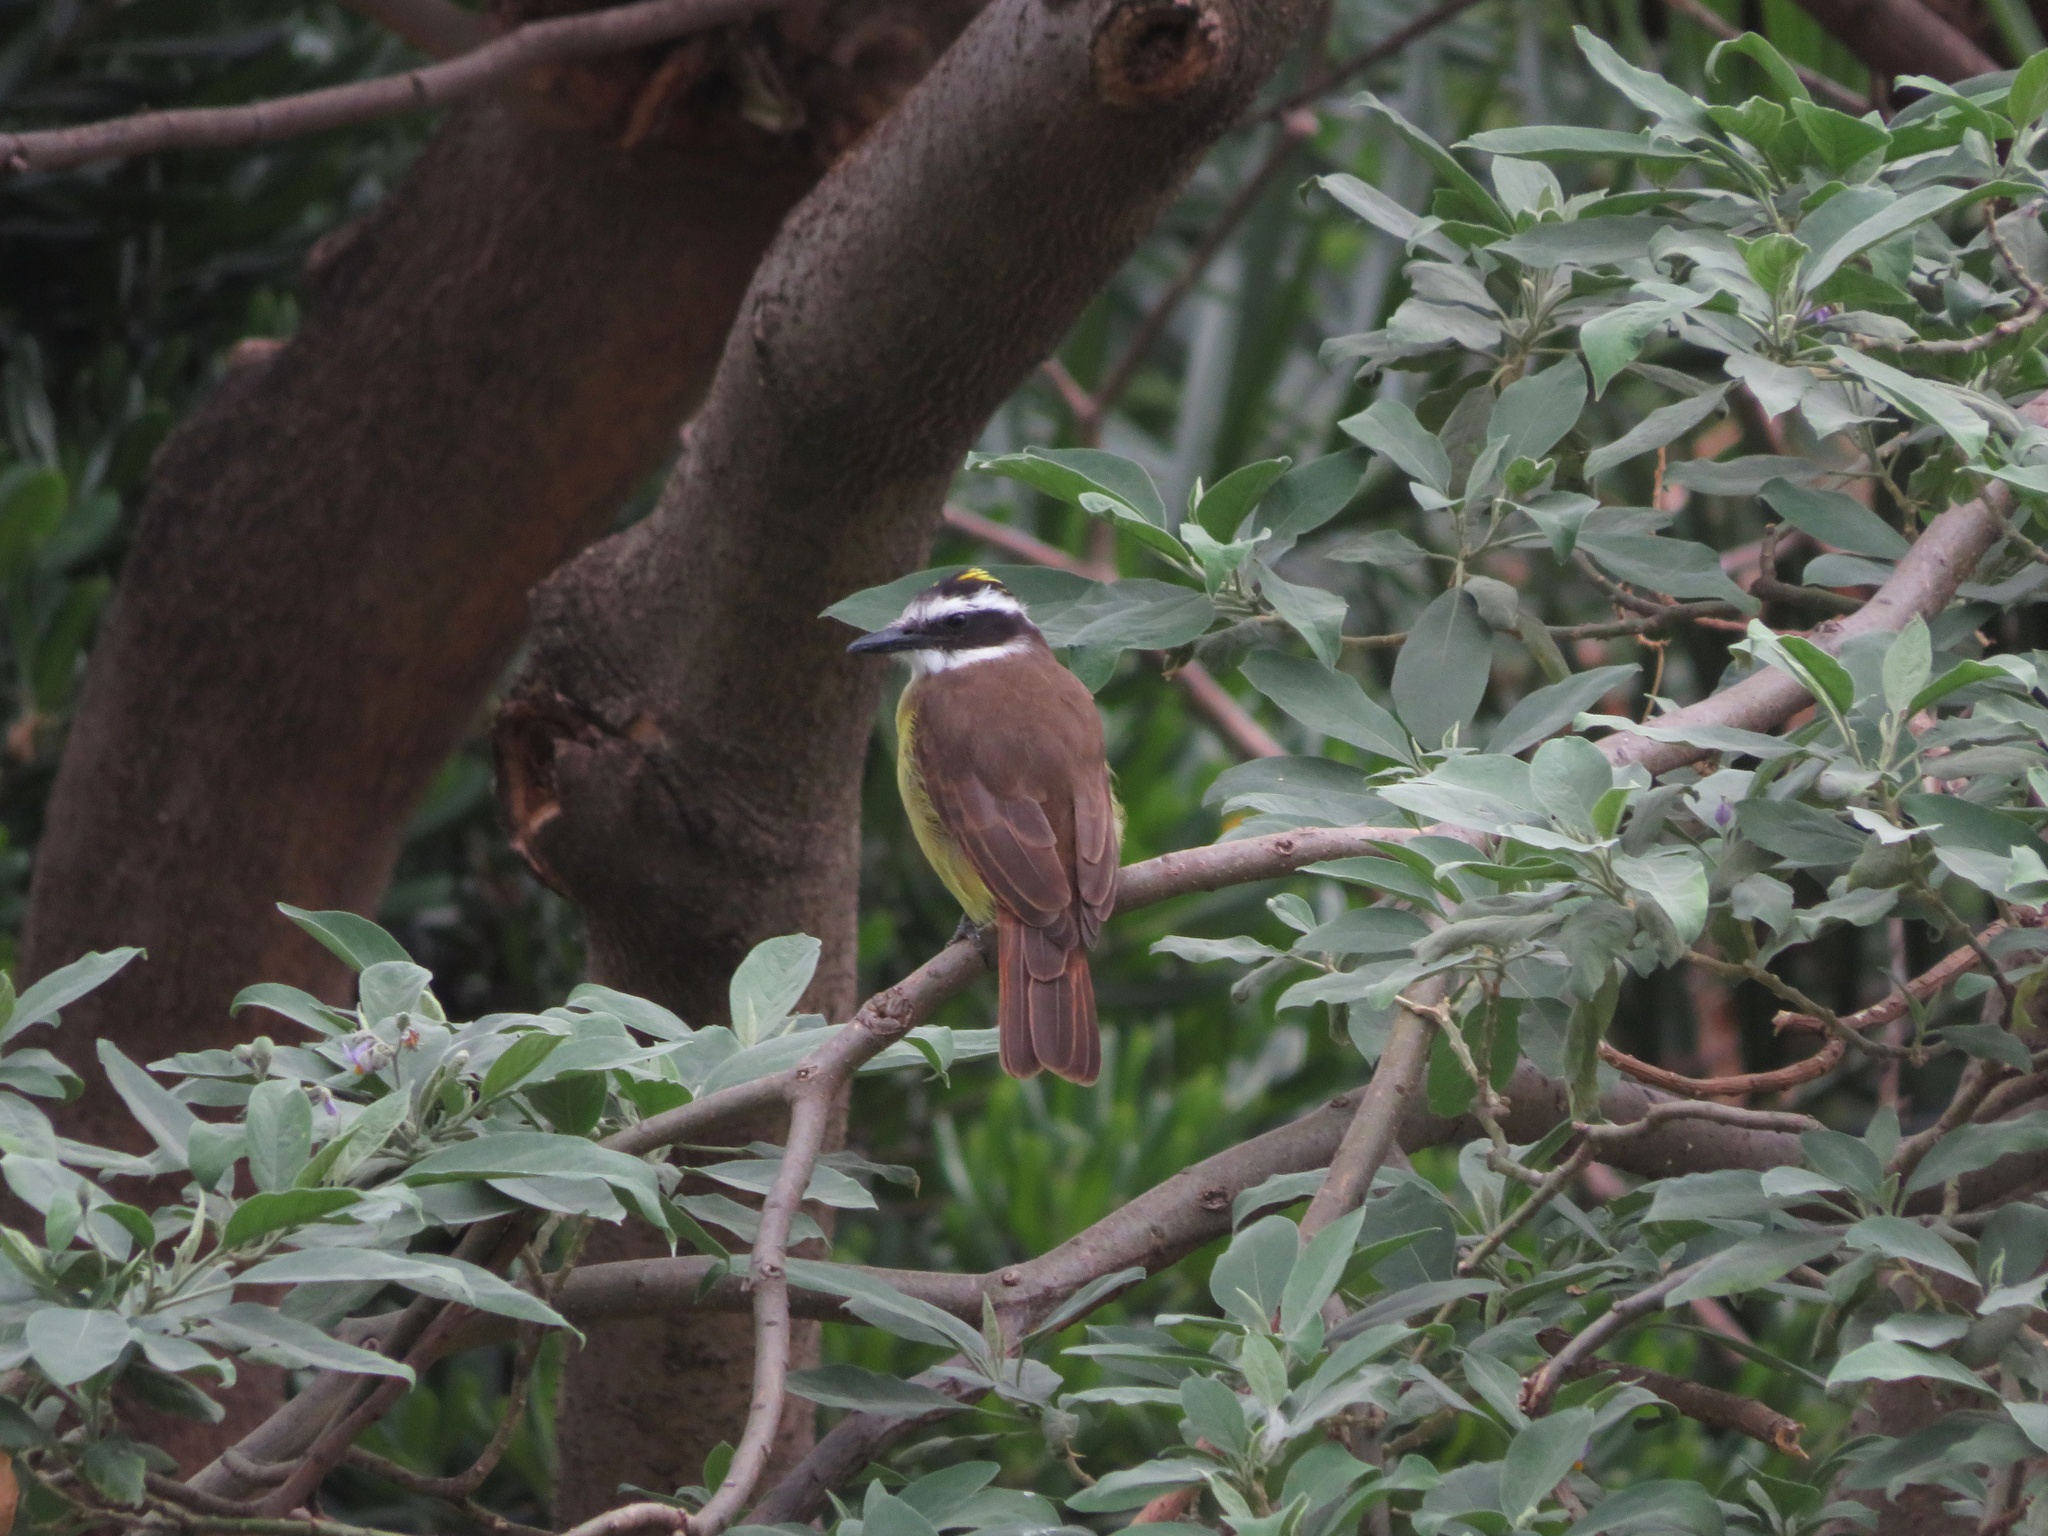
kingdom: Animalia
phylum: Chordata
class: Aves
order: Passeriformes
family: Tyrannidae
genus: Pitangus
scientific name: Pitangus sulphuratus
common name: Great kiskadee
